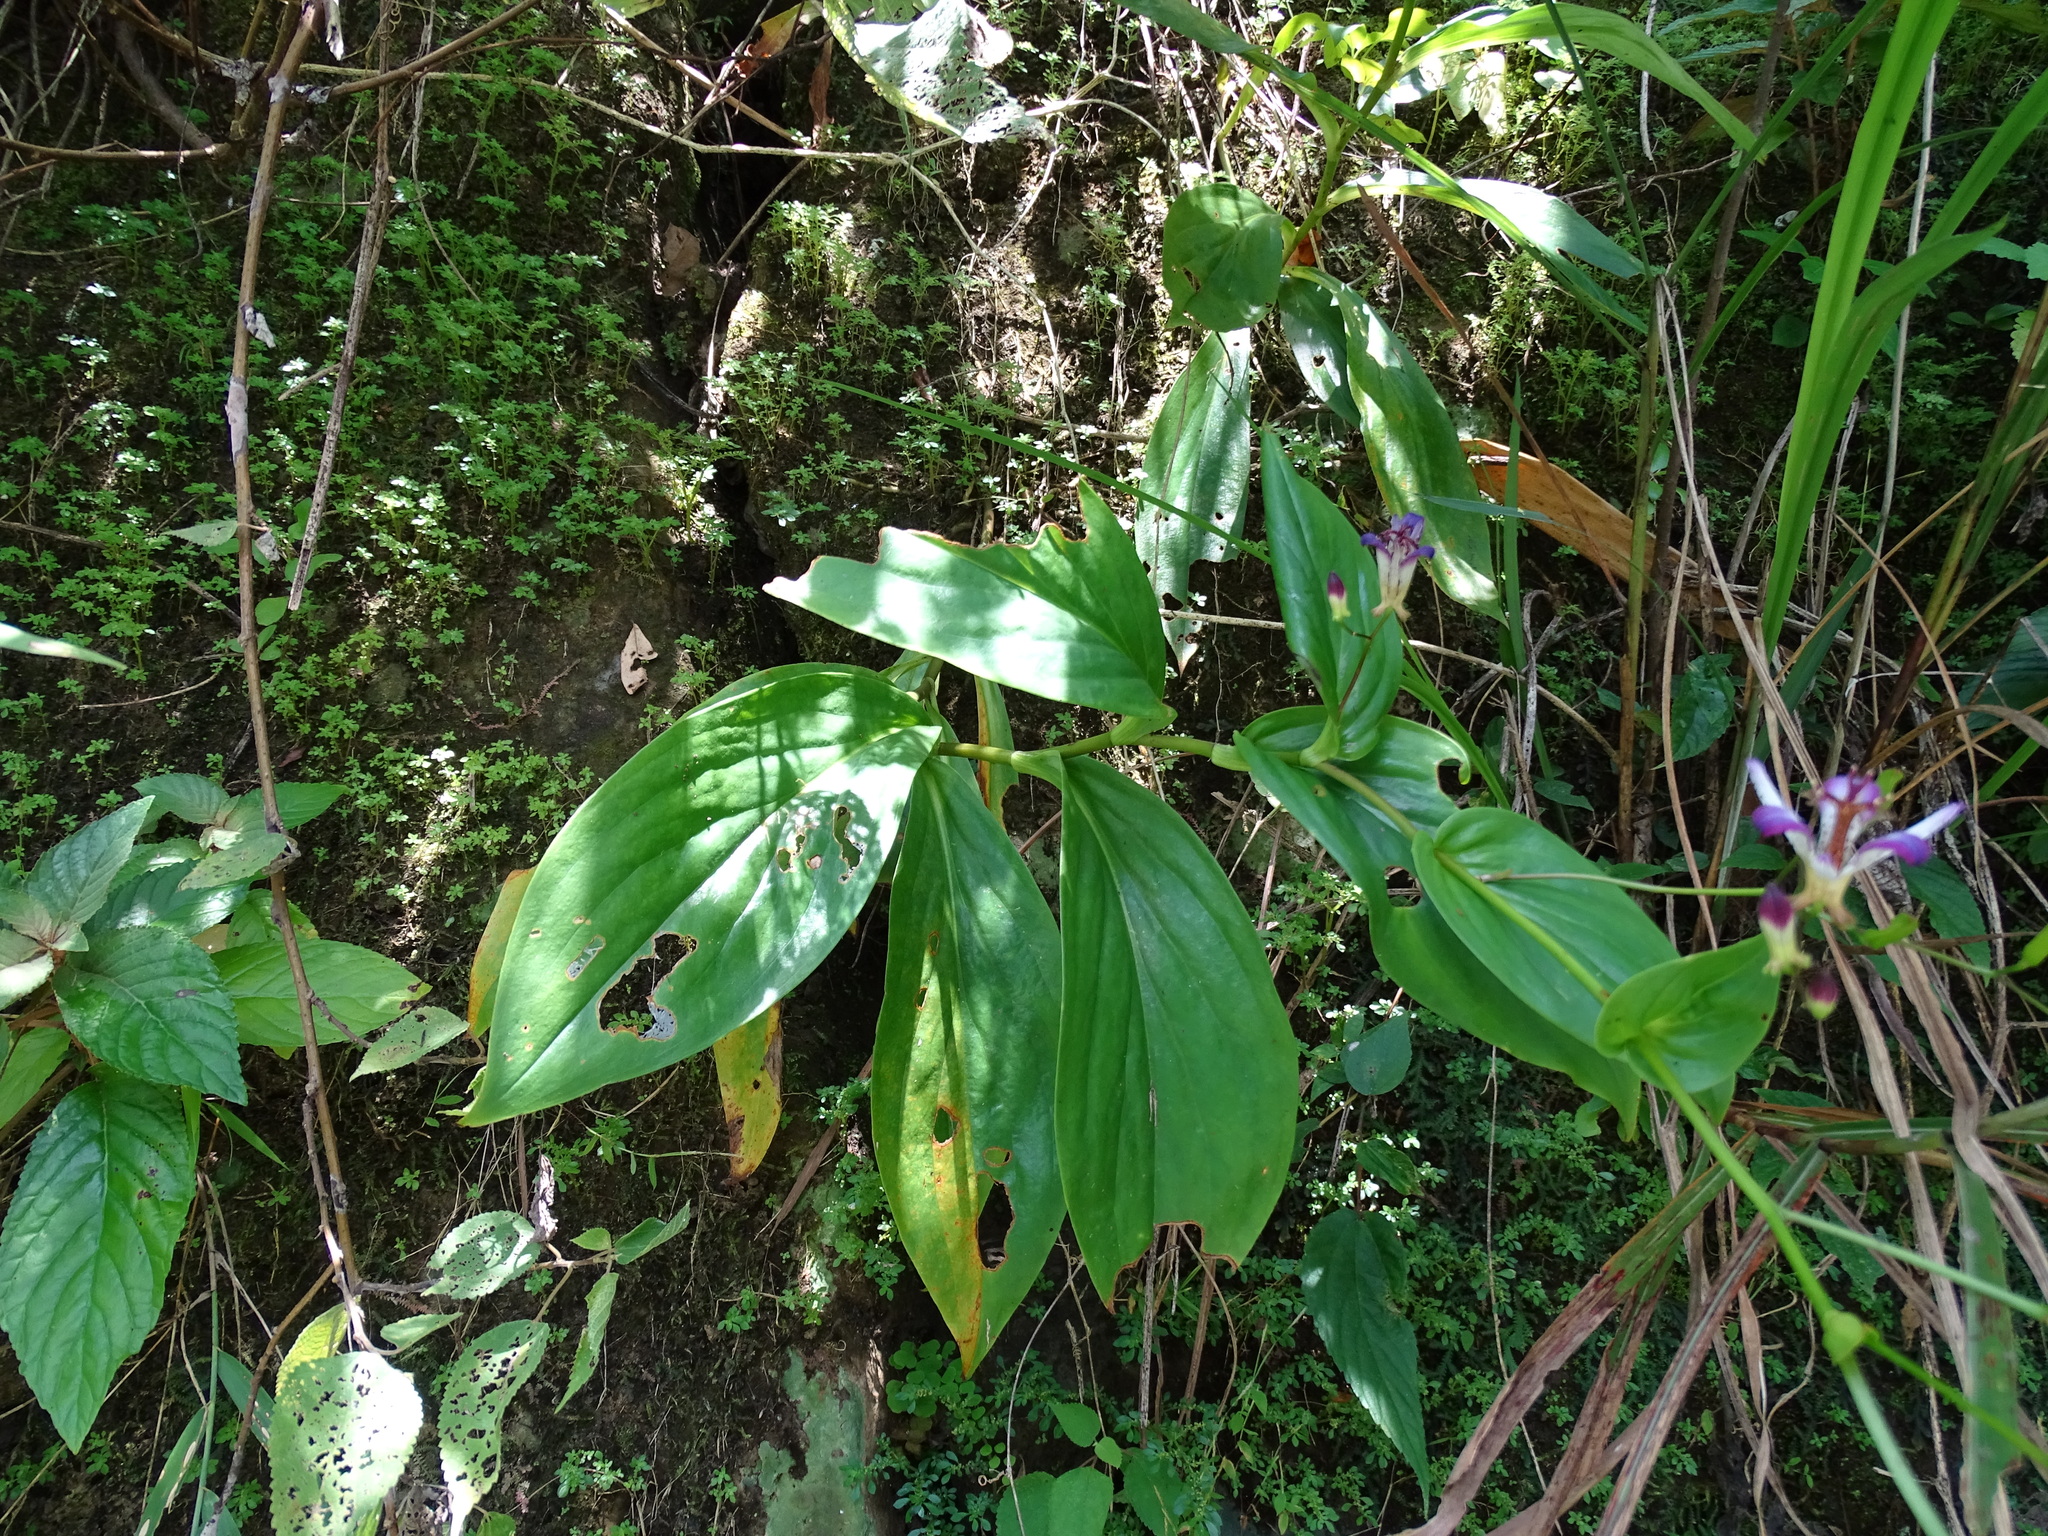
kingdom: Plantae
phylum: Tracheophyta
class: Liliopsida
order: Liliales
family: Liliaceae
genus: Tricyrtis
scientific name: Tricyrtis formosana
